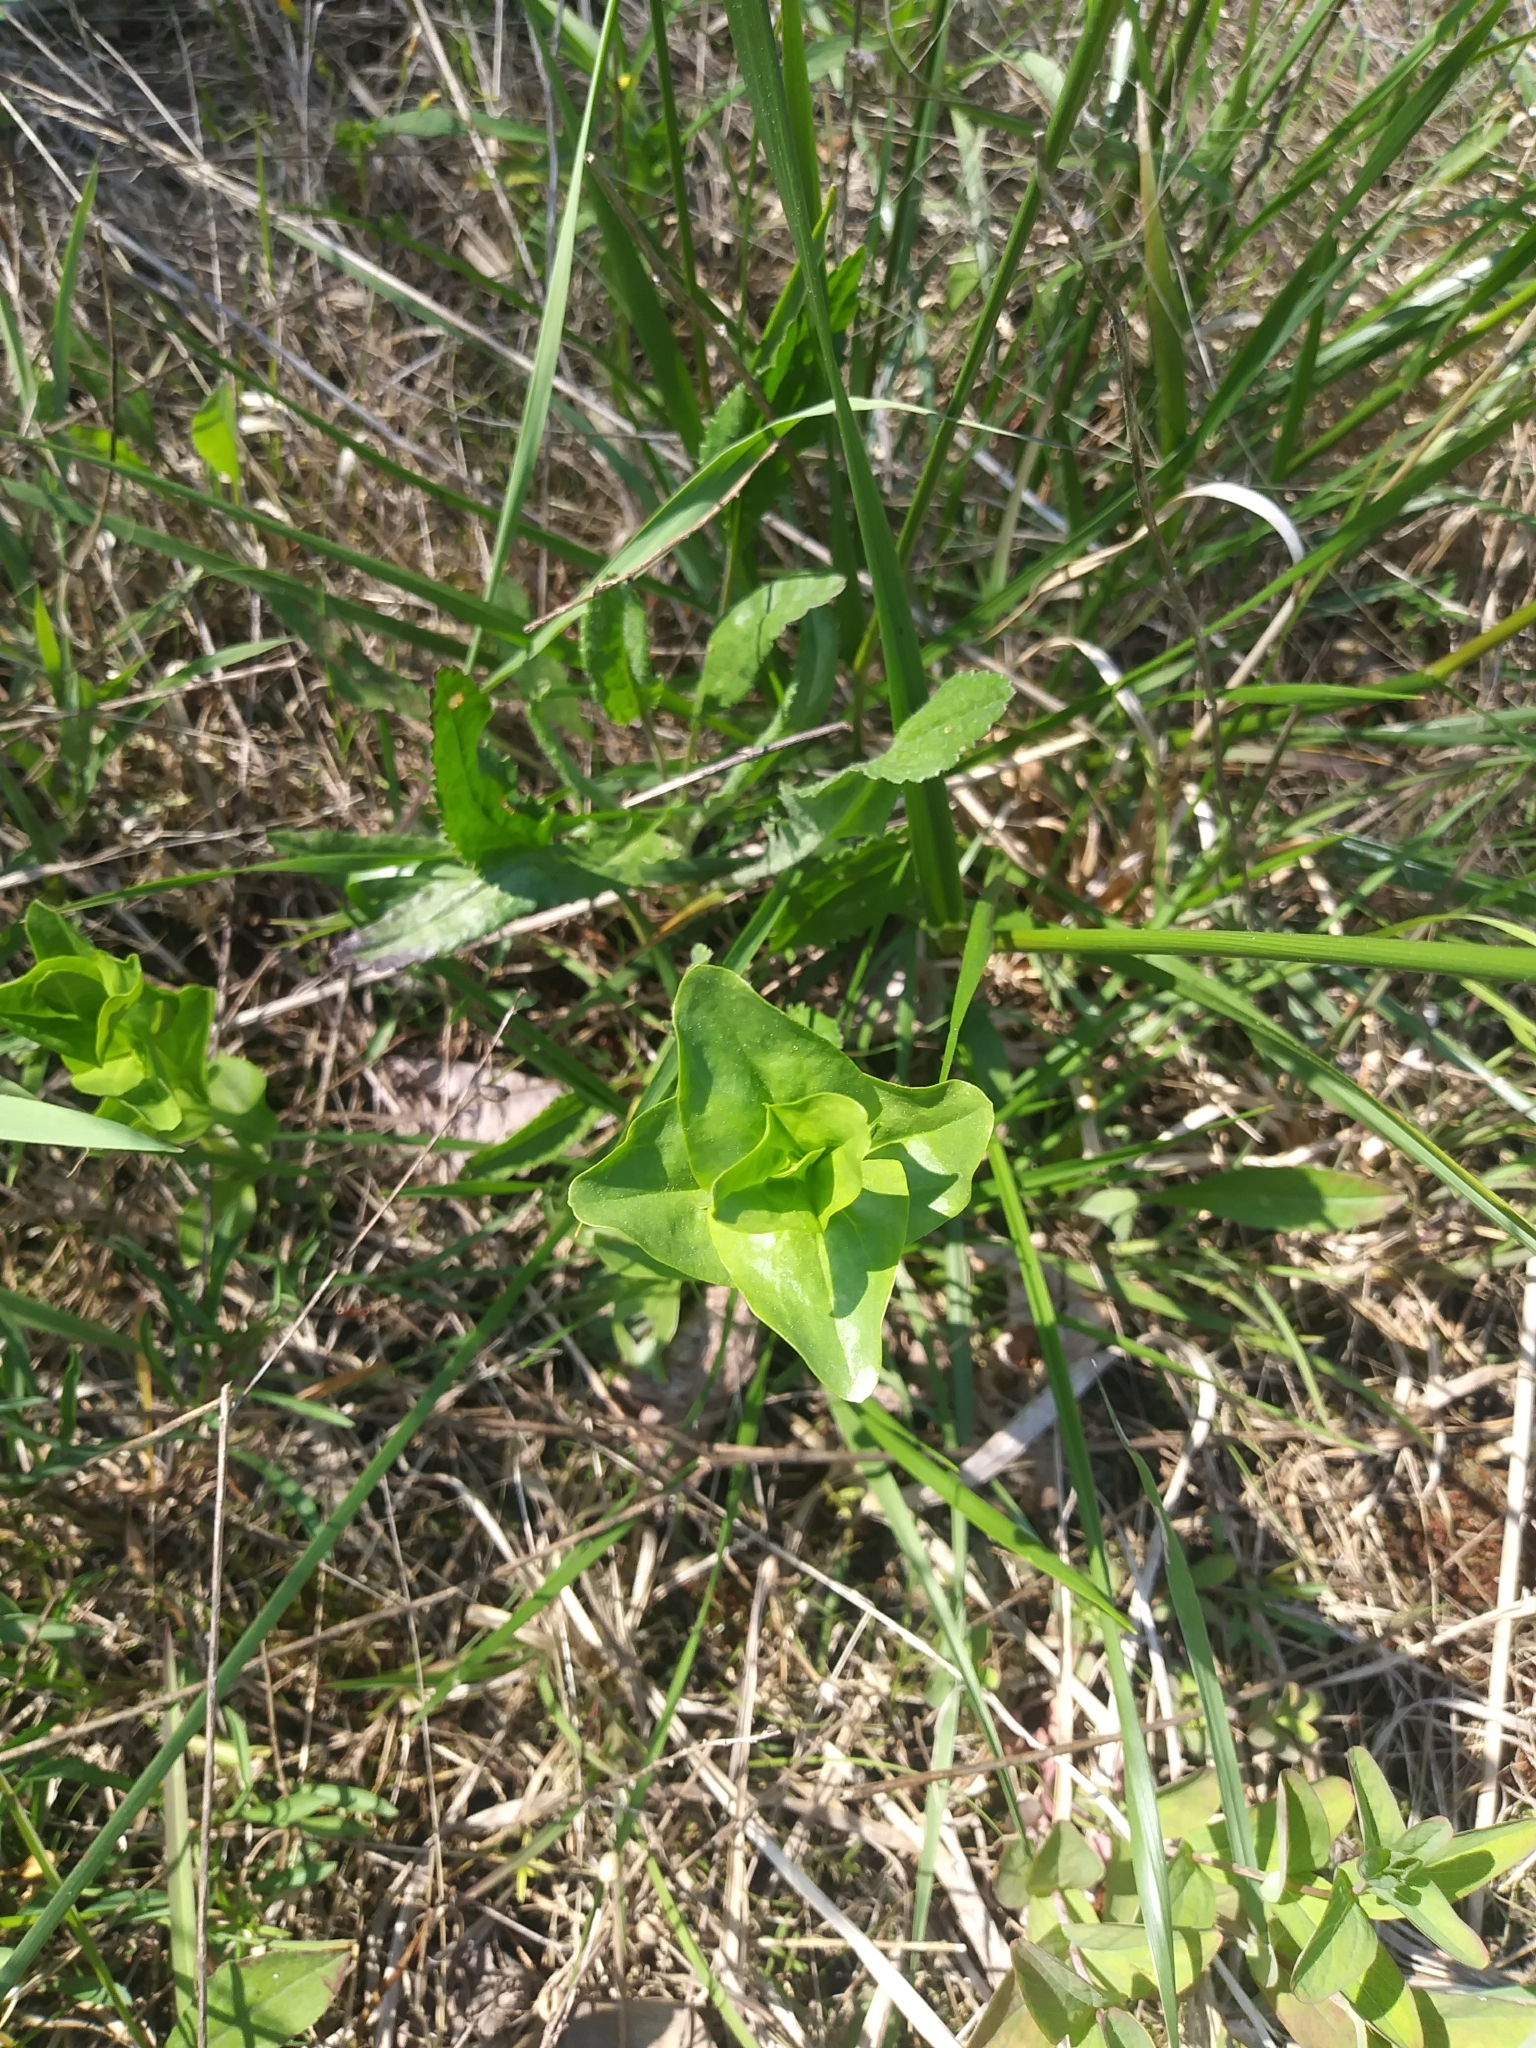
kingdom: Plantae
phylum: Tracheophyta
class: Magnoliopsida
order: Gentianales
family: Gentianaceae
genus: Sabatia
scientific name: Sabatia angularis
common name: Rose-pink
